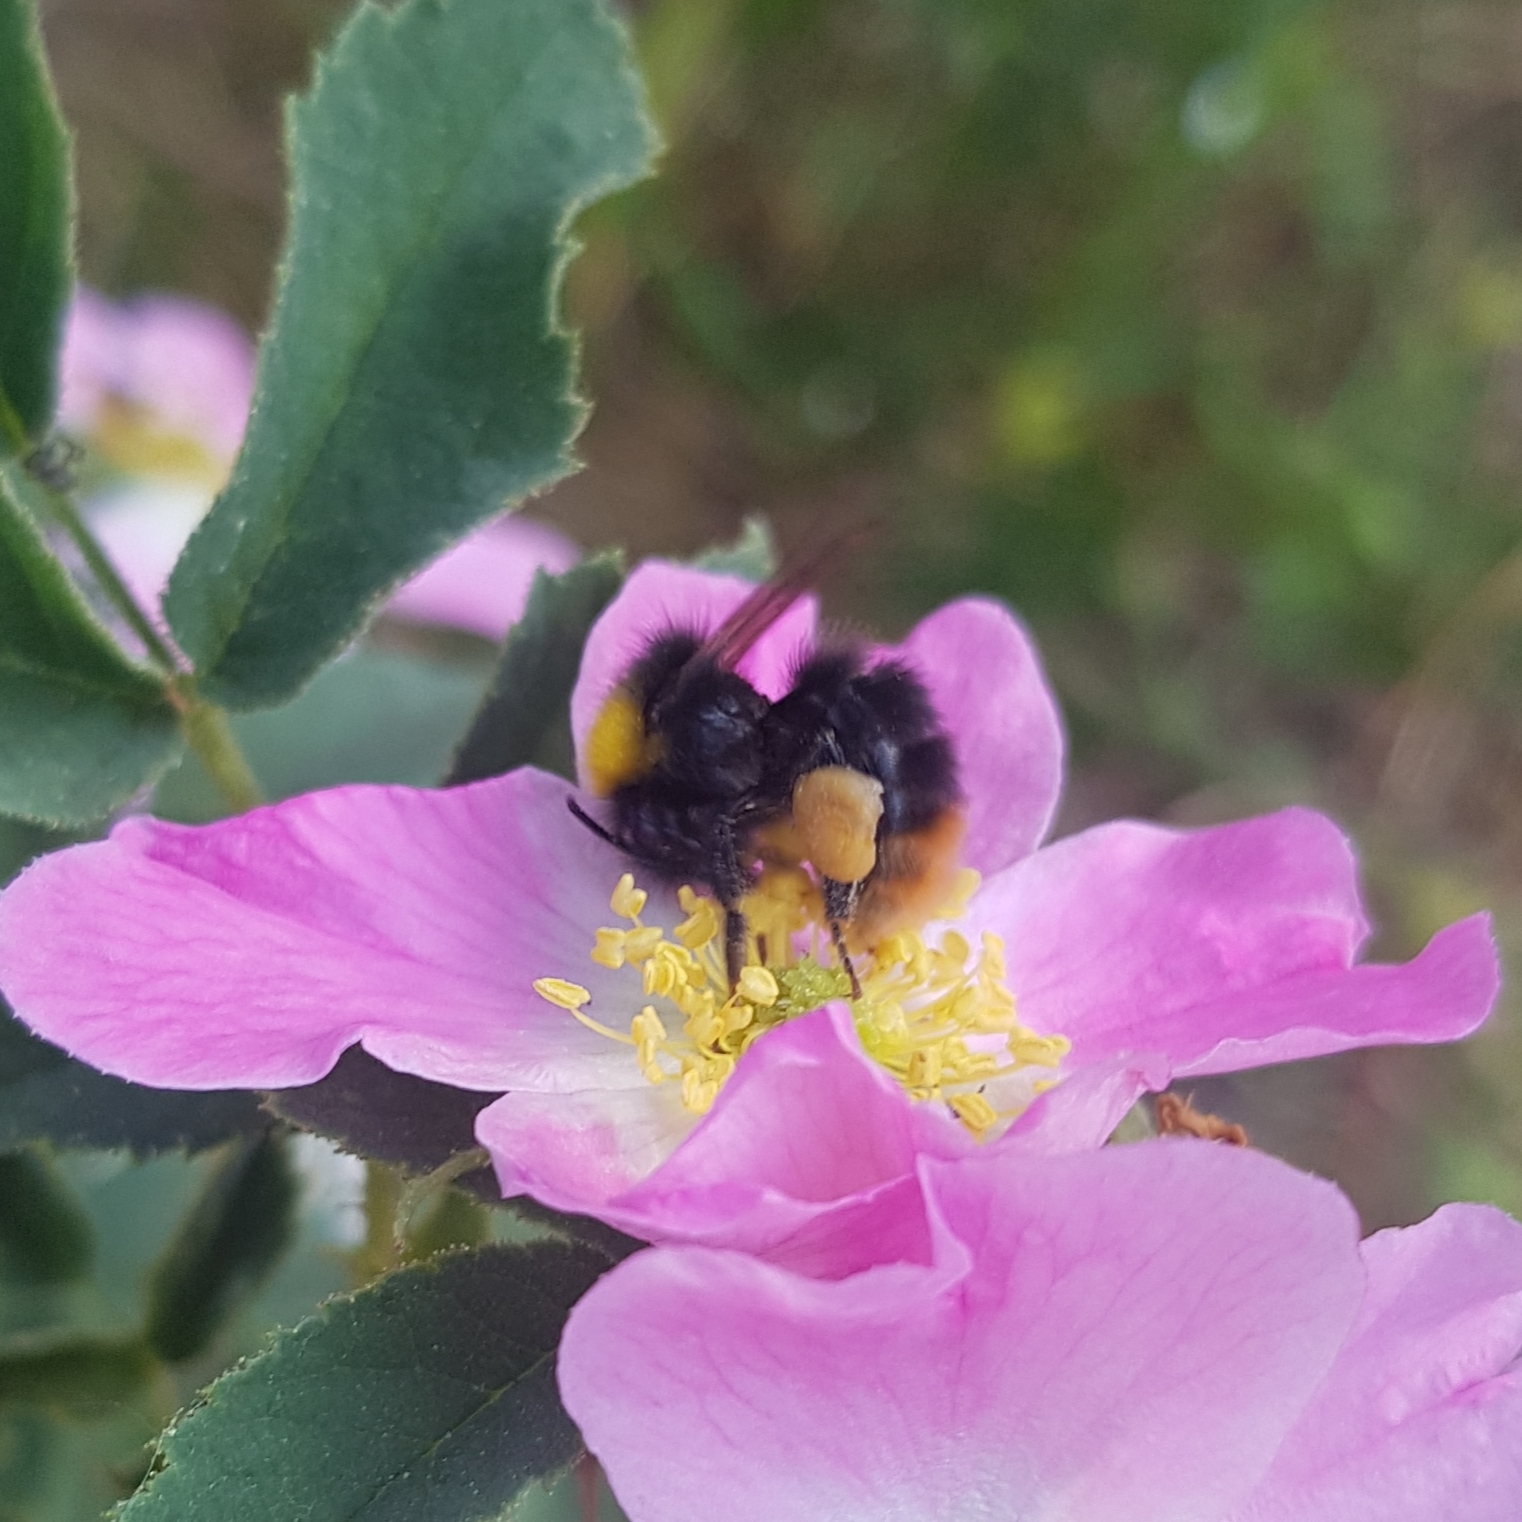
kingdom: Animalia
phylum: Arthropoda
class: Insecta
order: Hymenoptera
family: Apidae
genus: Bombus
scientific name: Bombus pratorum
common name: Early humble-bee
